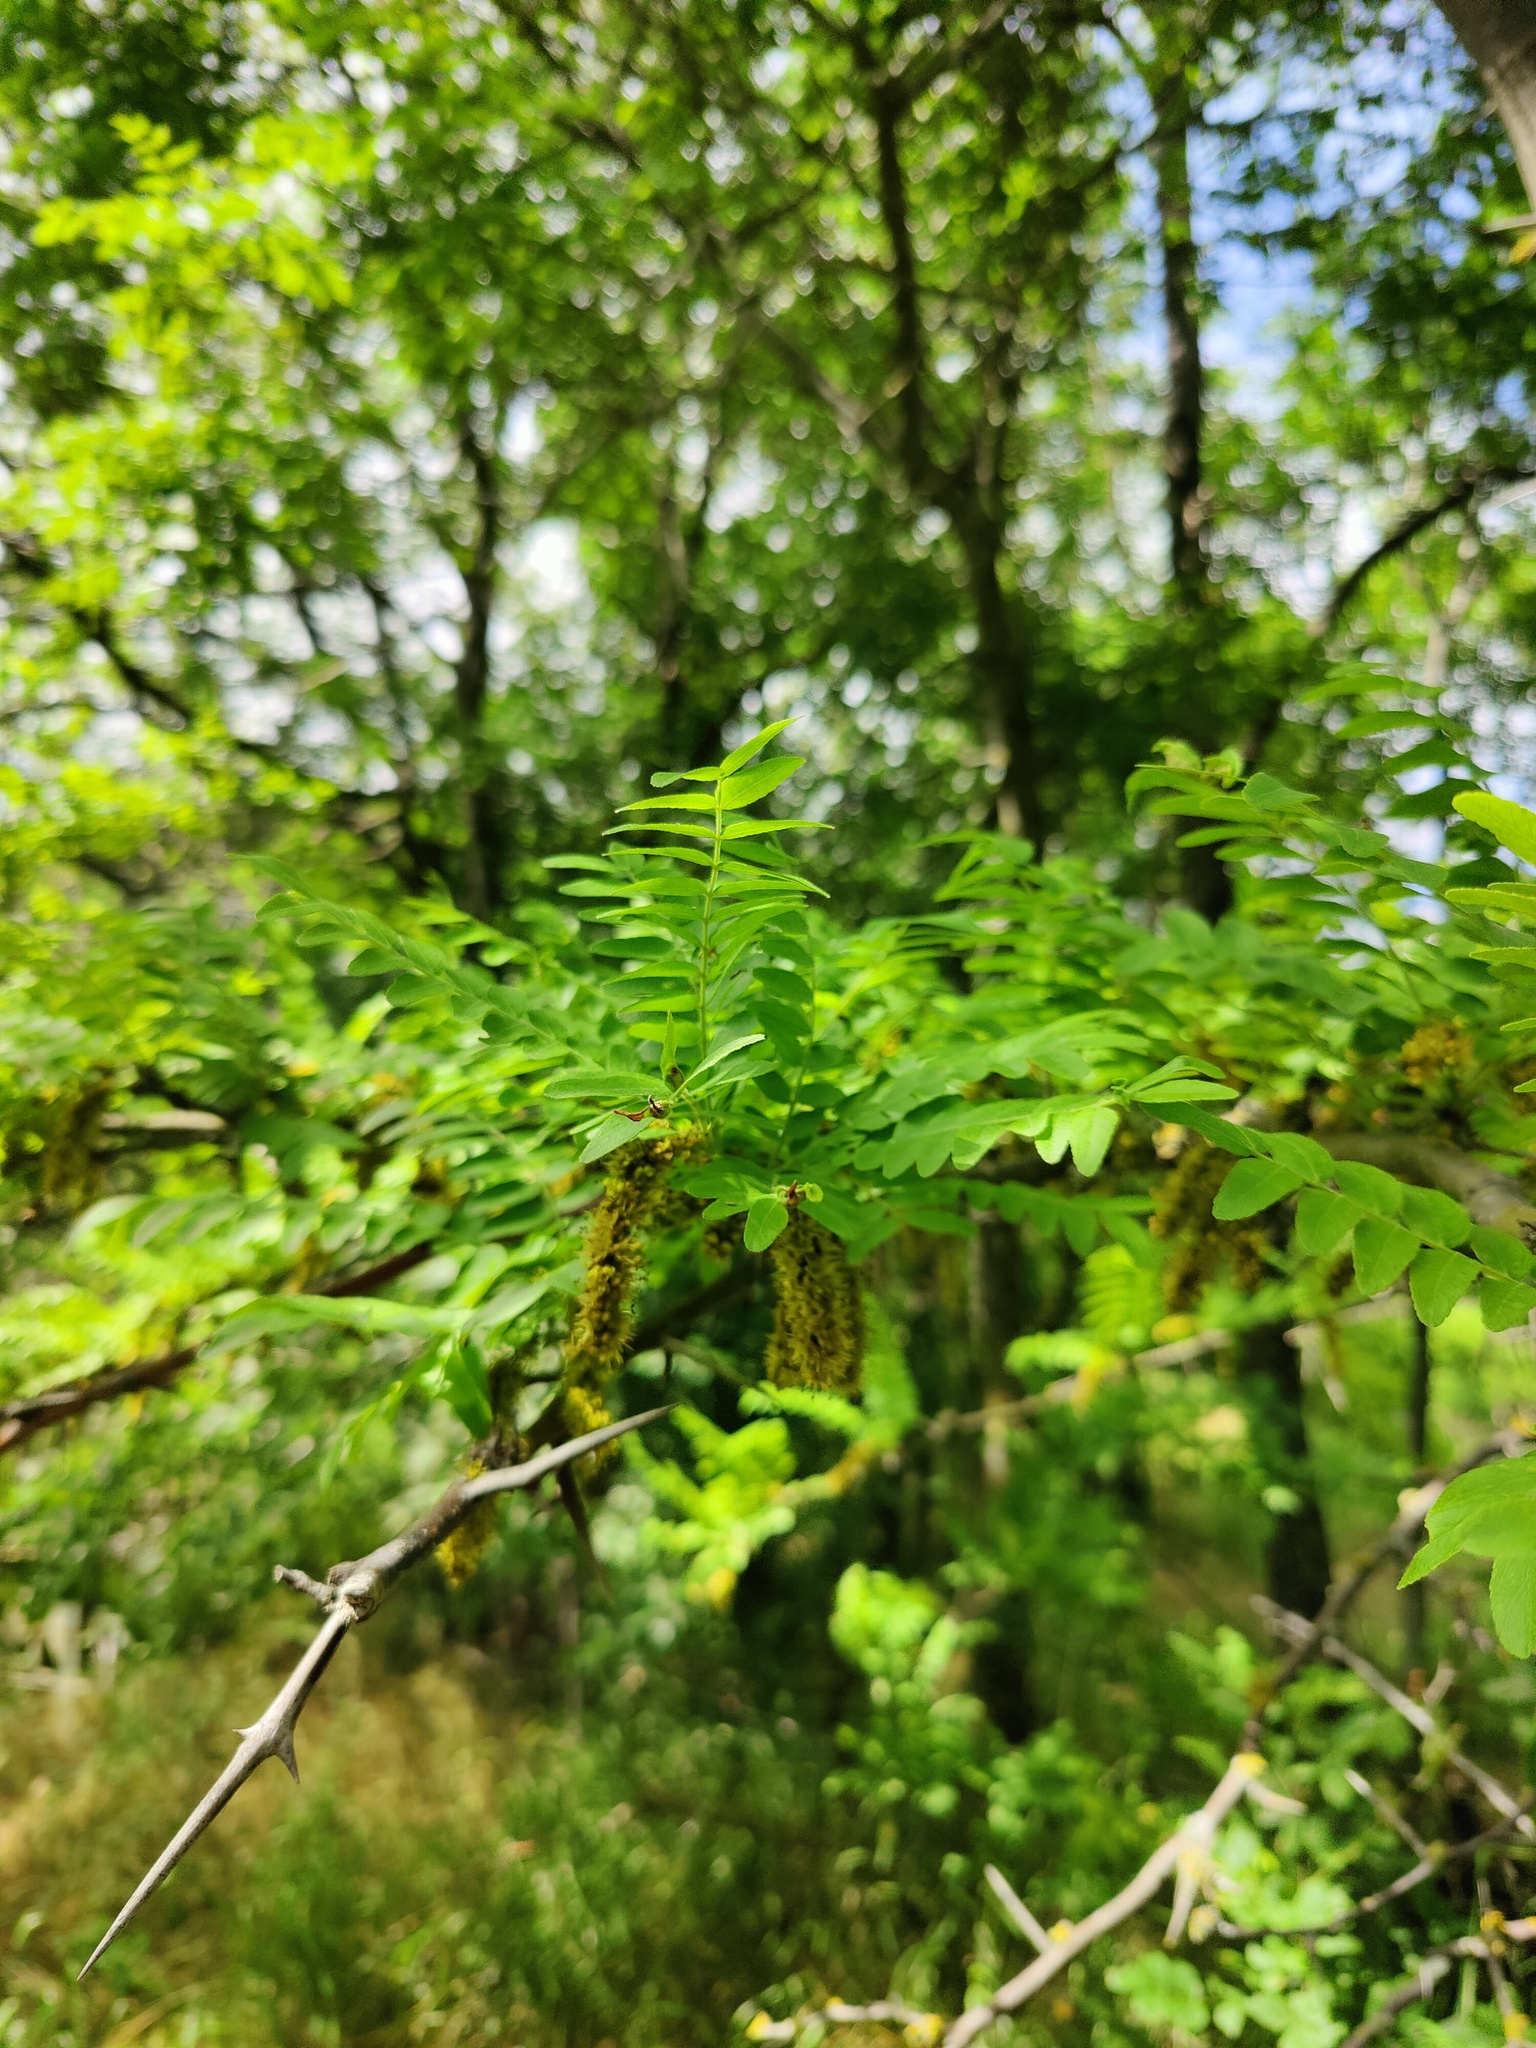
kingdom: Plantae
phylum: Tracheophyta
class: Magnoliopsida
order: Fabales
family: Fabaceae
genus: Gleditsia
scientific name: Gleditsia triacanthos
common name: Common honeylocust
